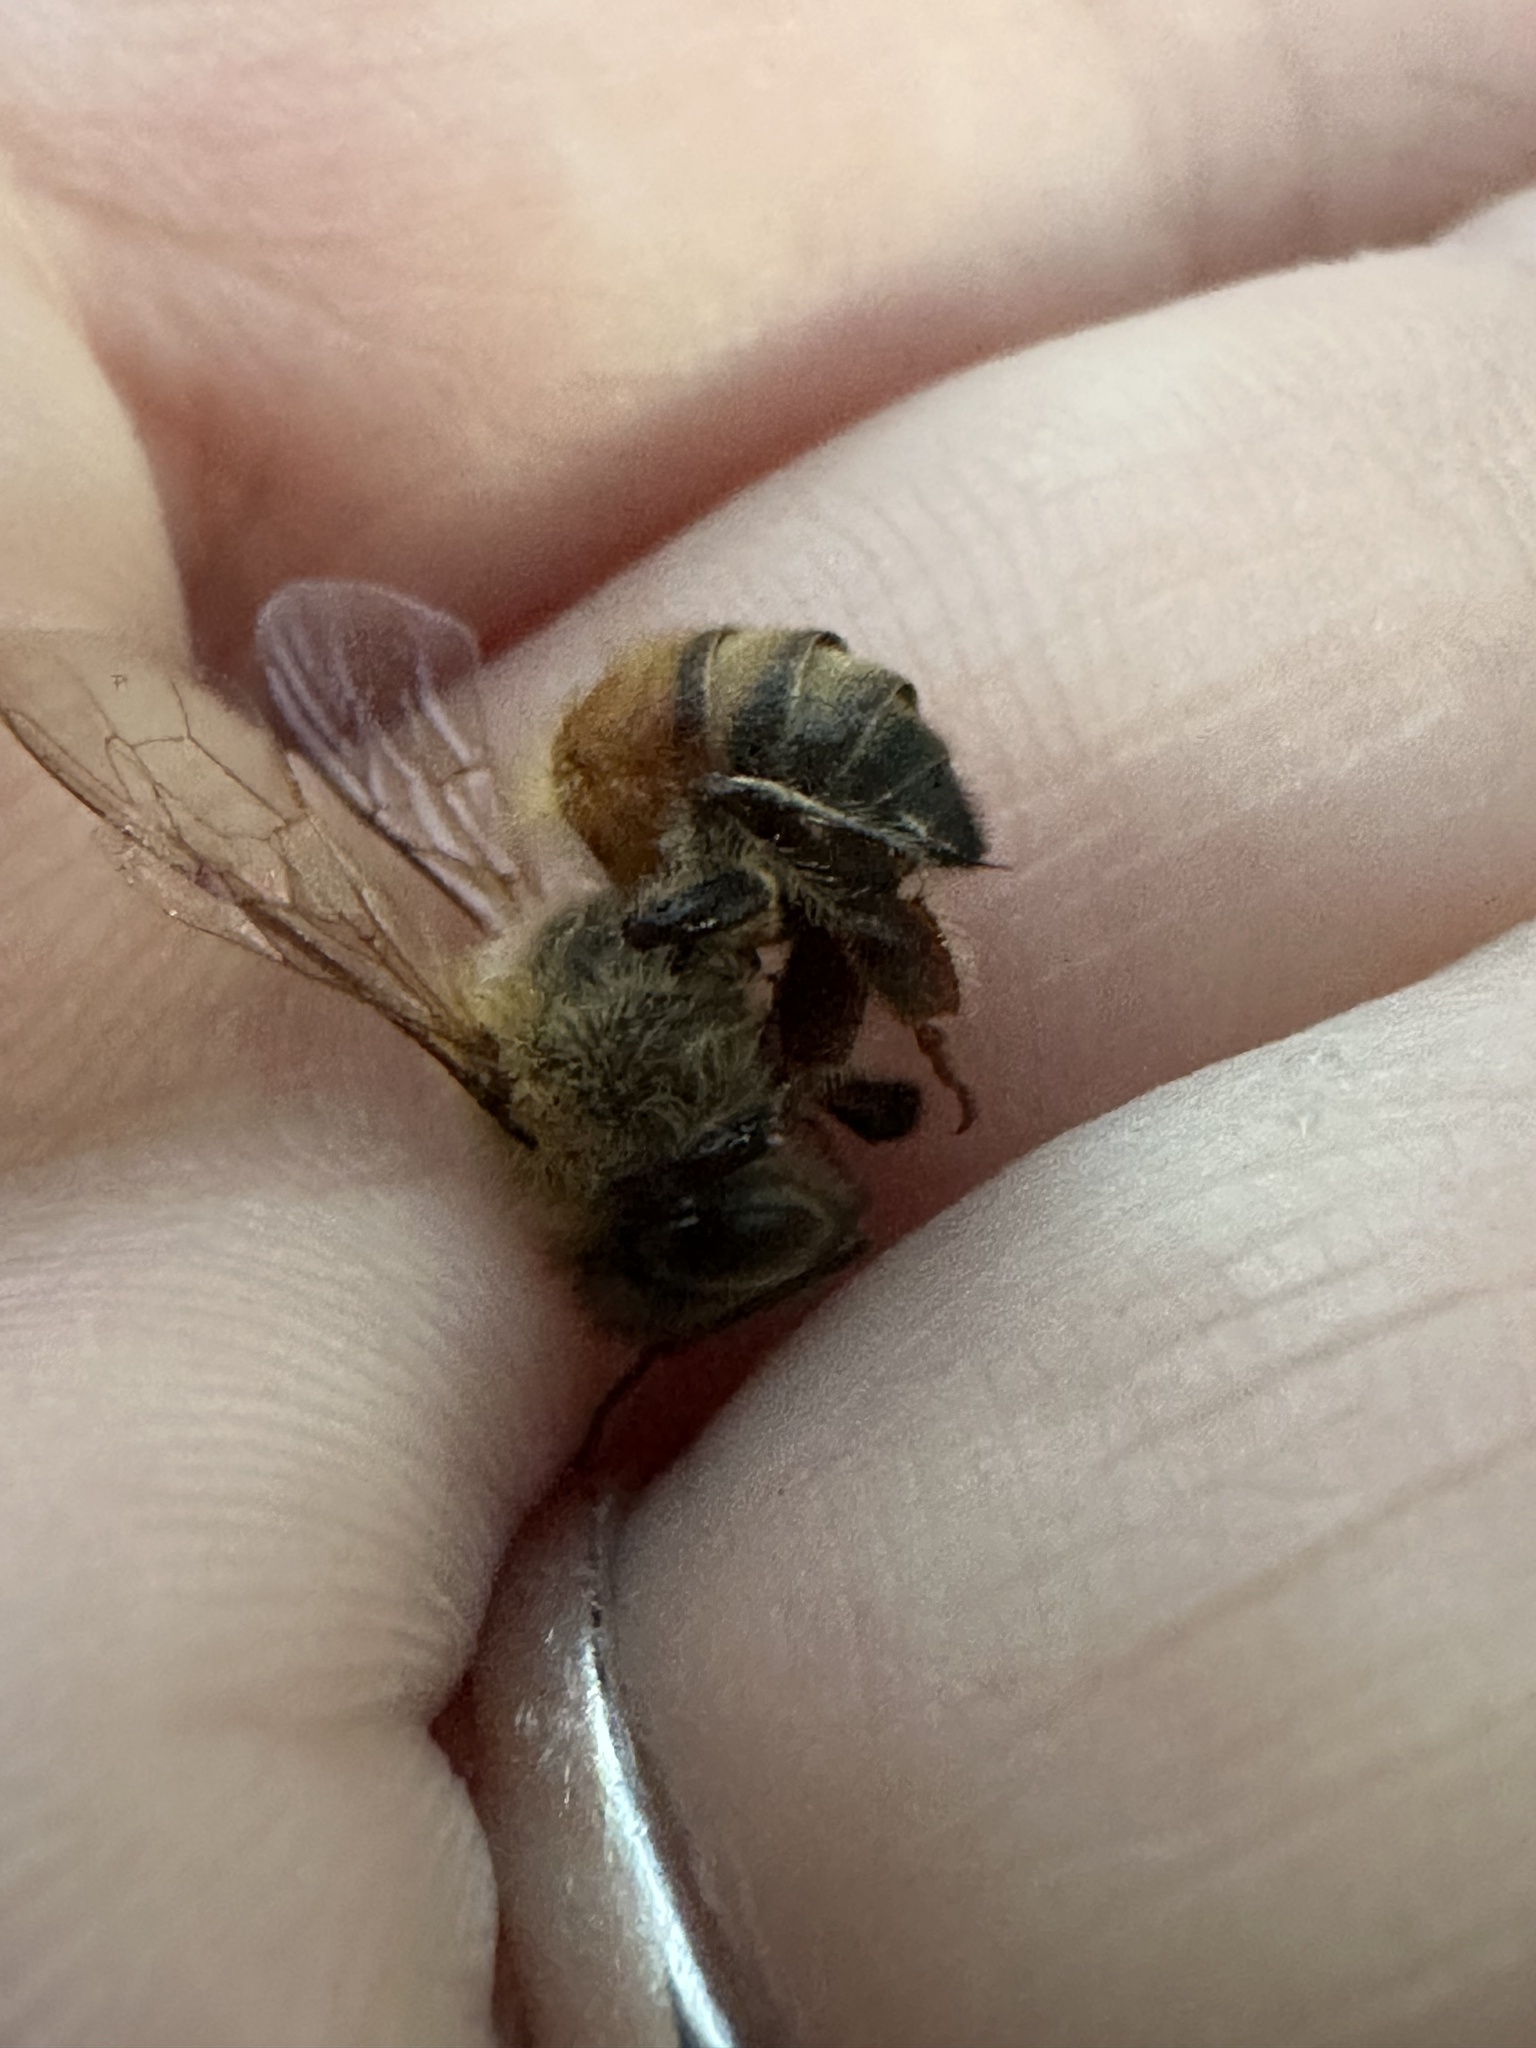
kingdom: Animalia
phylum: Arthropoda
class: Insecta
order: Hymenoptera
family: Apidae
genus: Apis
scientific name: Apis mellifera
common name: Honey bee
